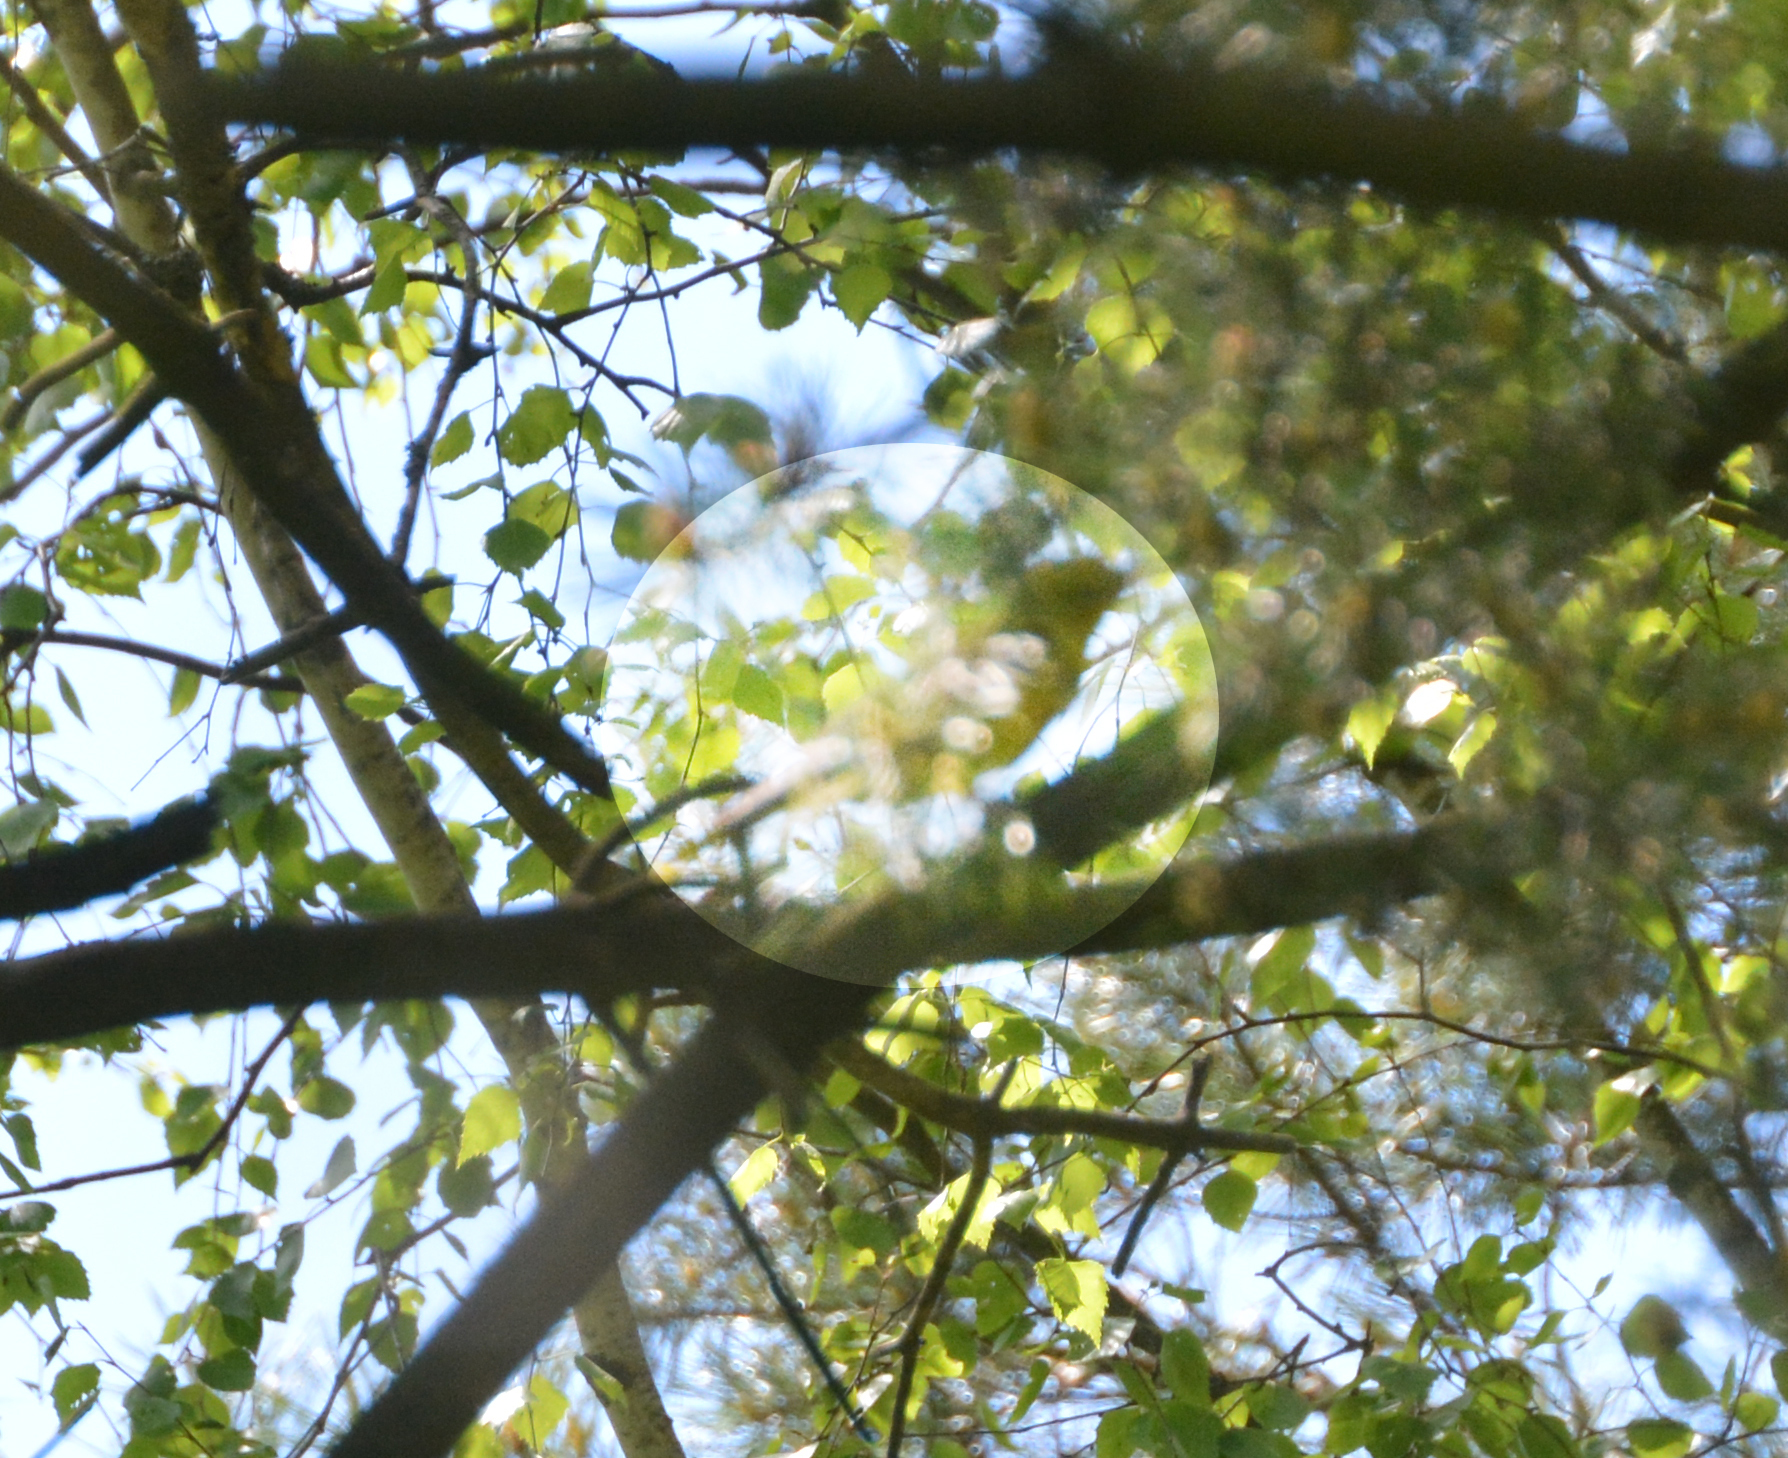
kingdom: Animalia
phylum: Chordata
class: Aves
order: Passeriformes
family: Oriolidae
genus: Oriolus
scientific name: Oriolus oriolus
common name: Eurasian golden oriole
